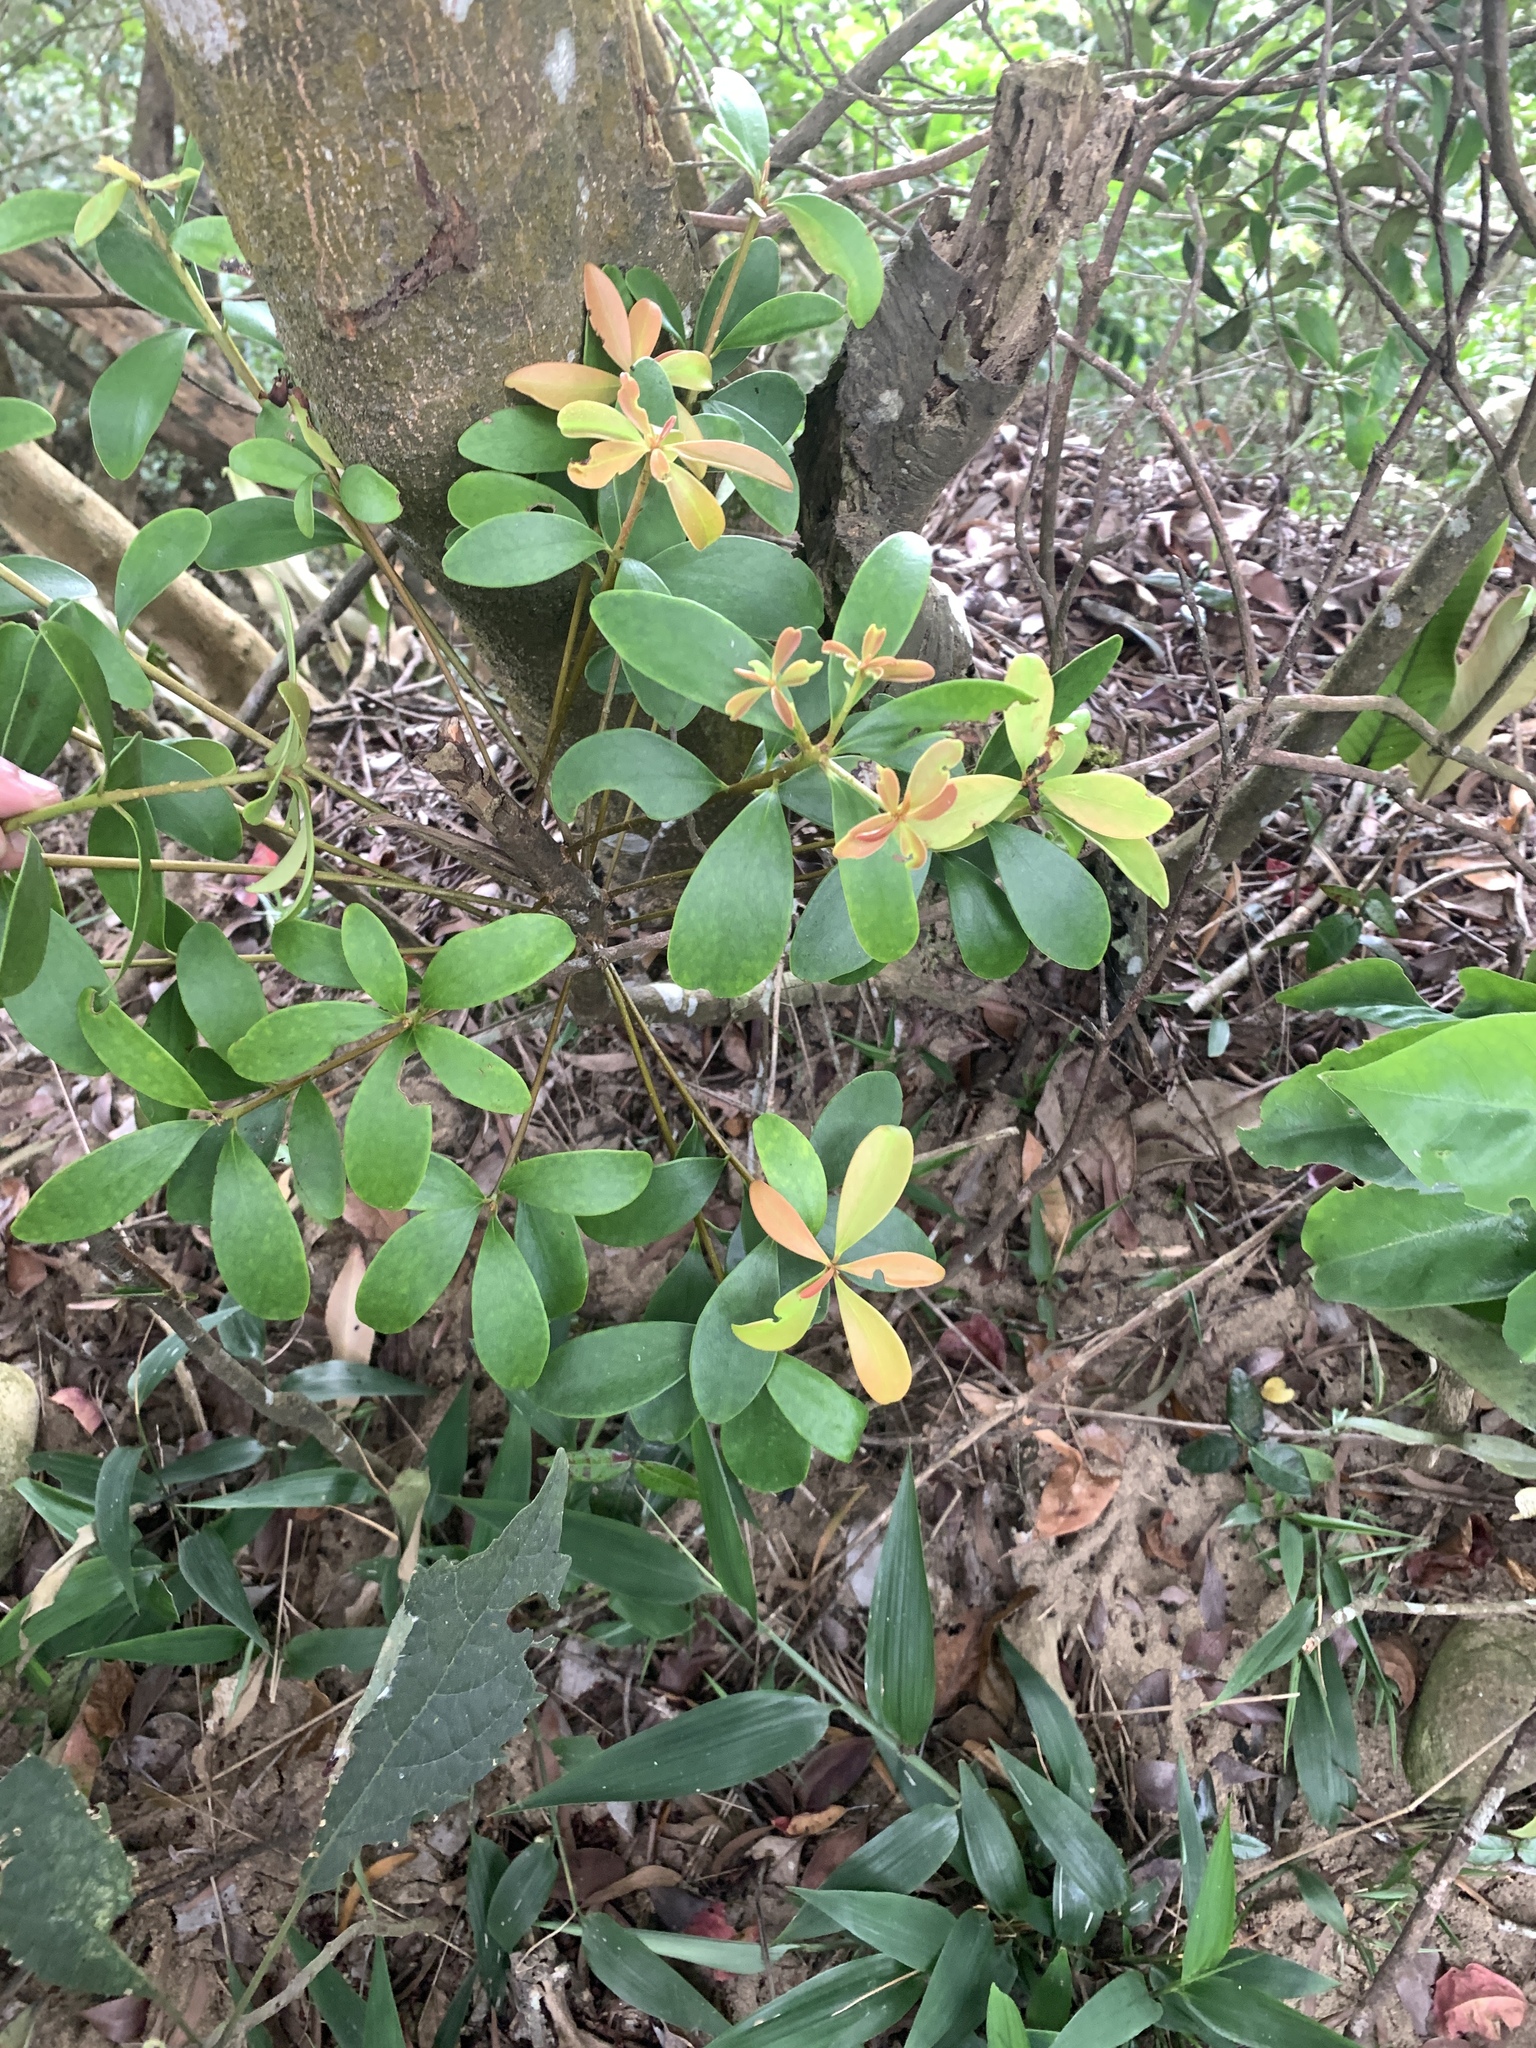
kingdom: Plantae
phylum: Tracheophyta
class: Magnoliopsida
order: Ericales
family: Pentaphylacaceae
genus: Ternstroemia
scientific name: Ternstroemia gymnanthera
